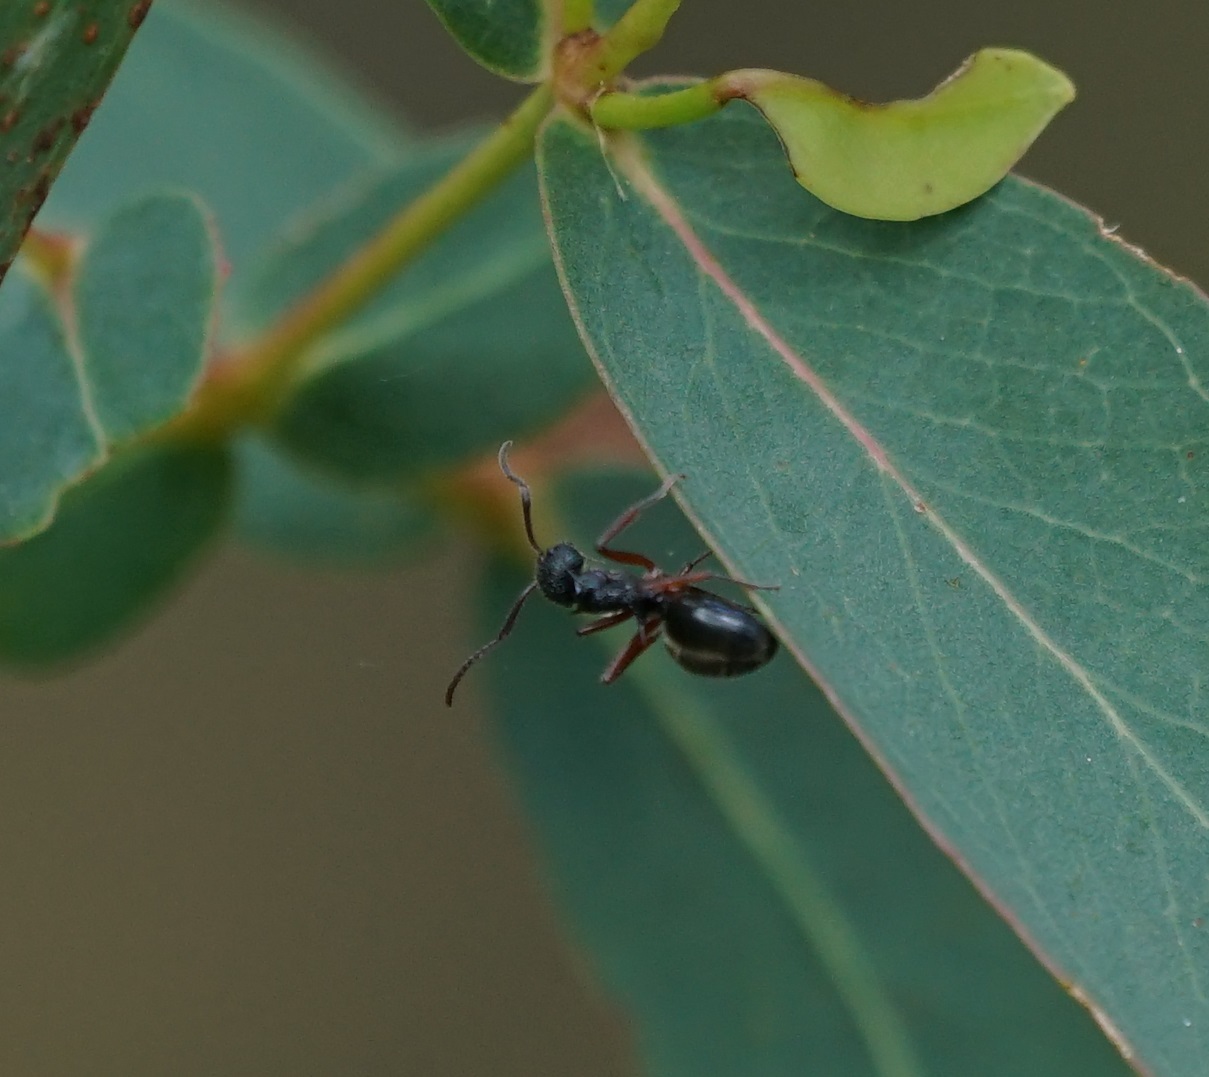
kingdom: Animalia
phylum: Arthropoda
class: Insecta
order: Hymenoptera
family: Formicidae
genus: Dolichoderus
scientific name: Dolichoderus doriae
